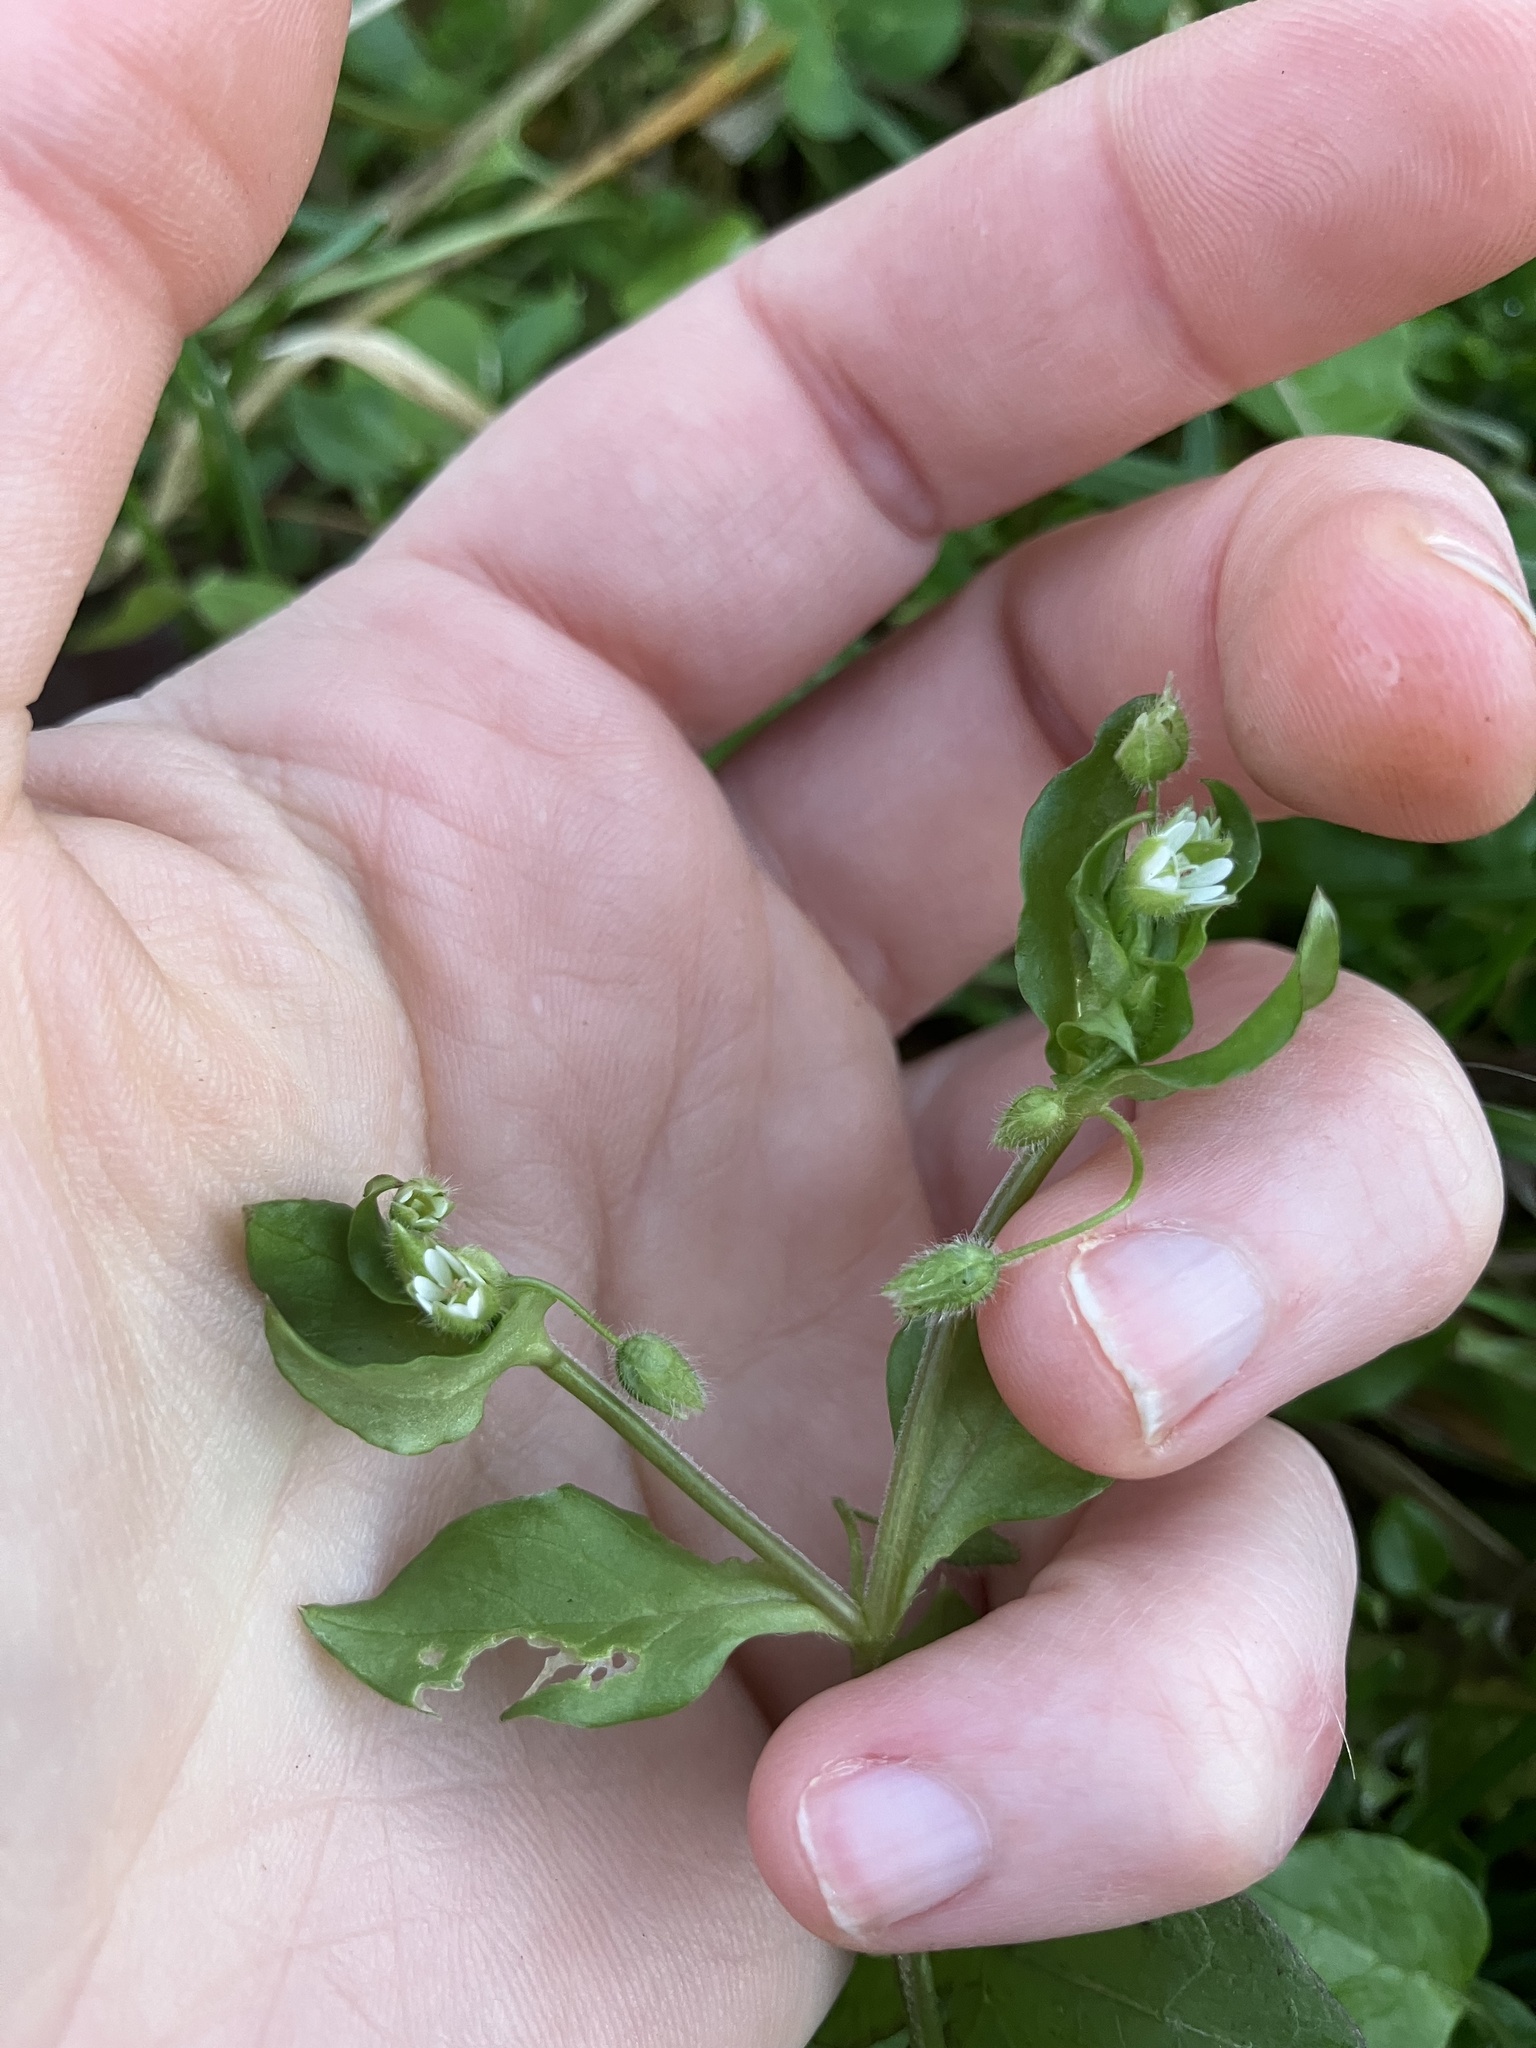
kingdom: Plantae
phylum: Tracheophyta
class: Magnoliopsida
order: Caryophyllales
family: Caryophyllaceae
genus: Stellaria
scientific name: Stellaria media
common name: Common chickweed
